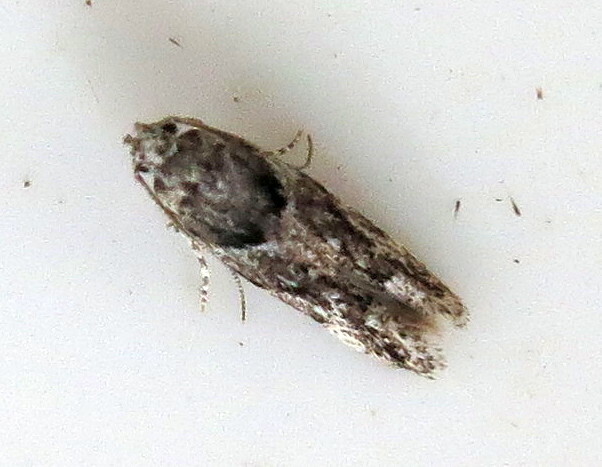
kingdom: Animalia
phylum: Arthropoda
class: Insecta
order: Lepidoptera
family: Gelechiidae
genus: Recurvaria
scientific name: Recurvaria nanella
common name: Gelechiid moth
